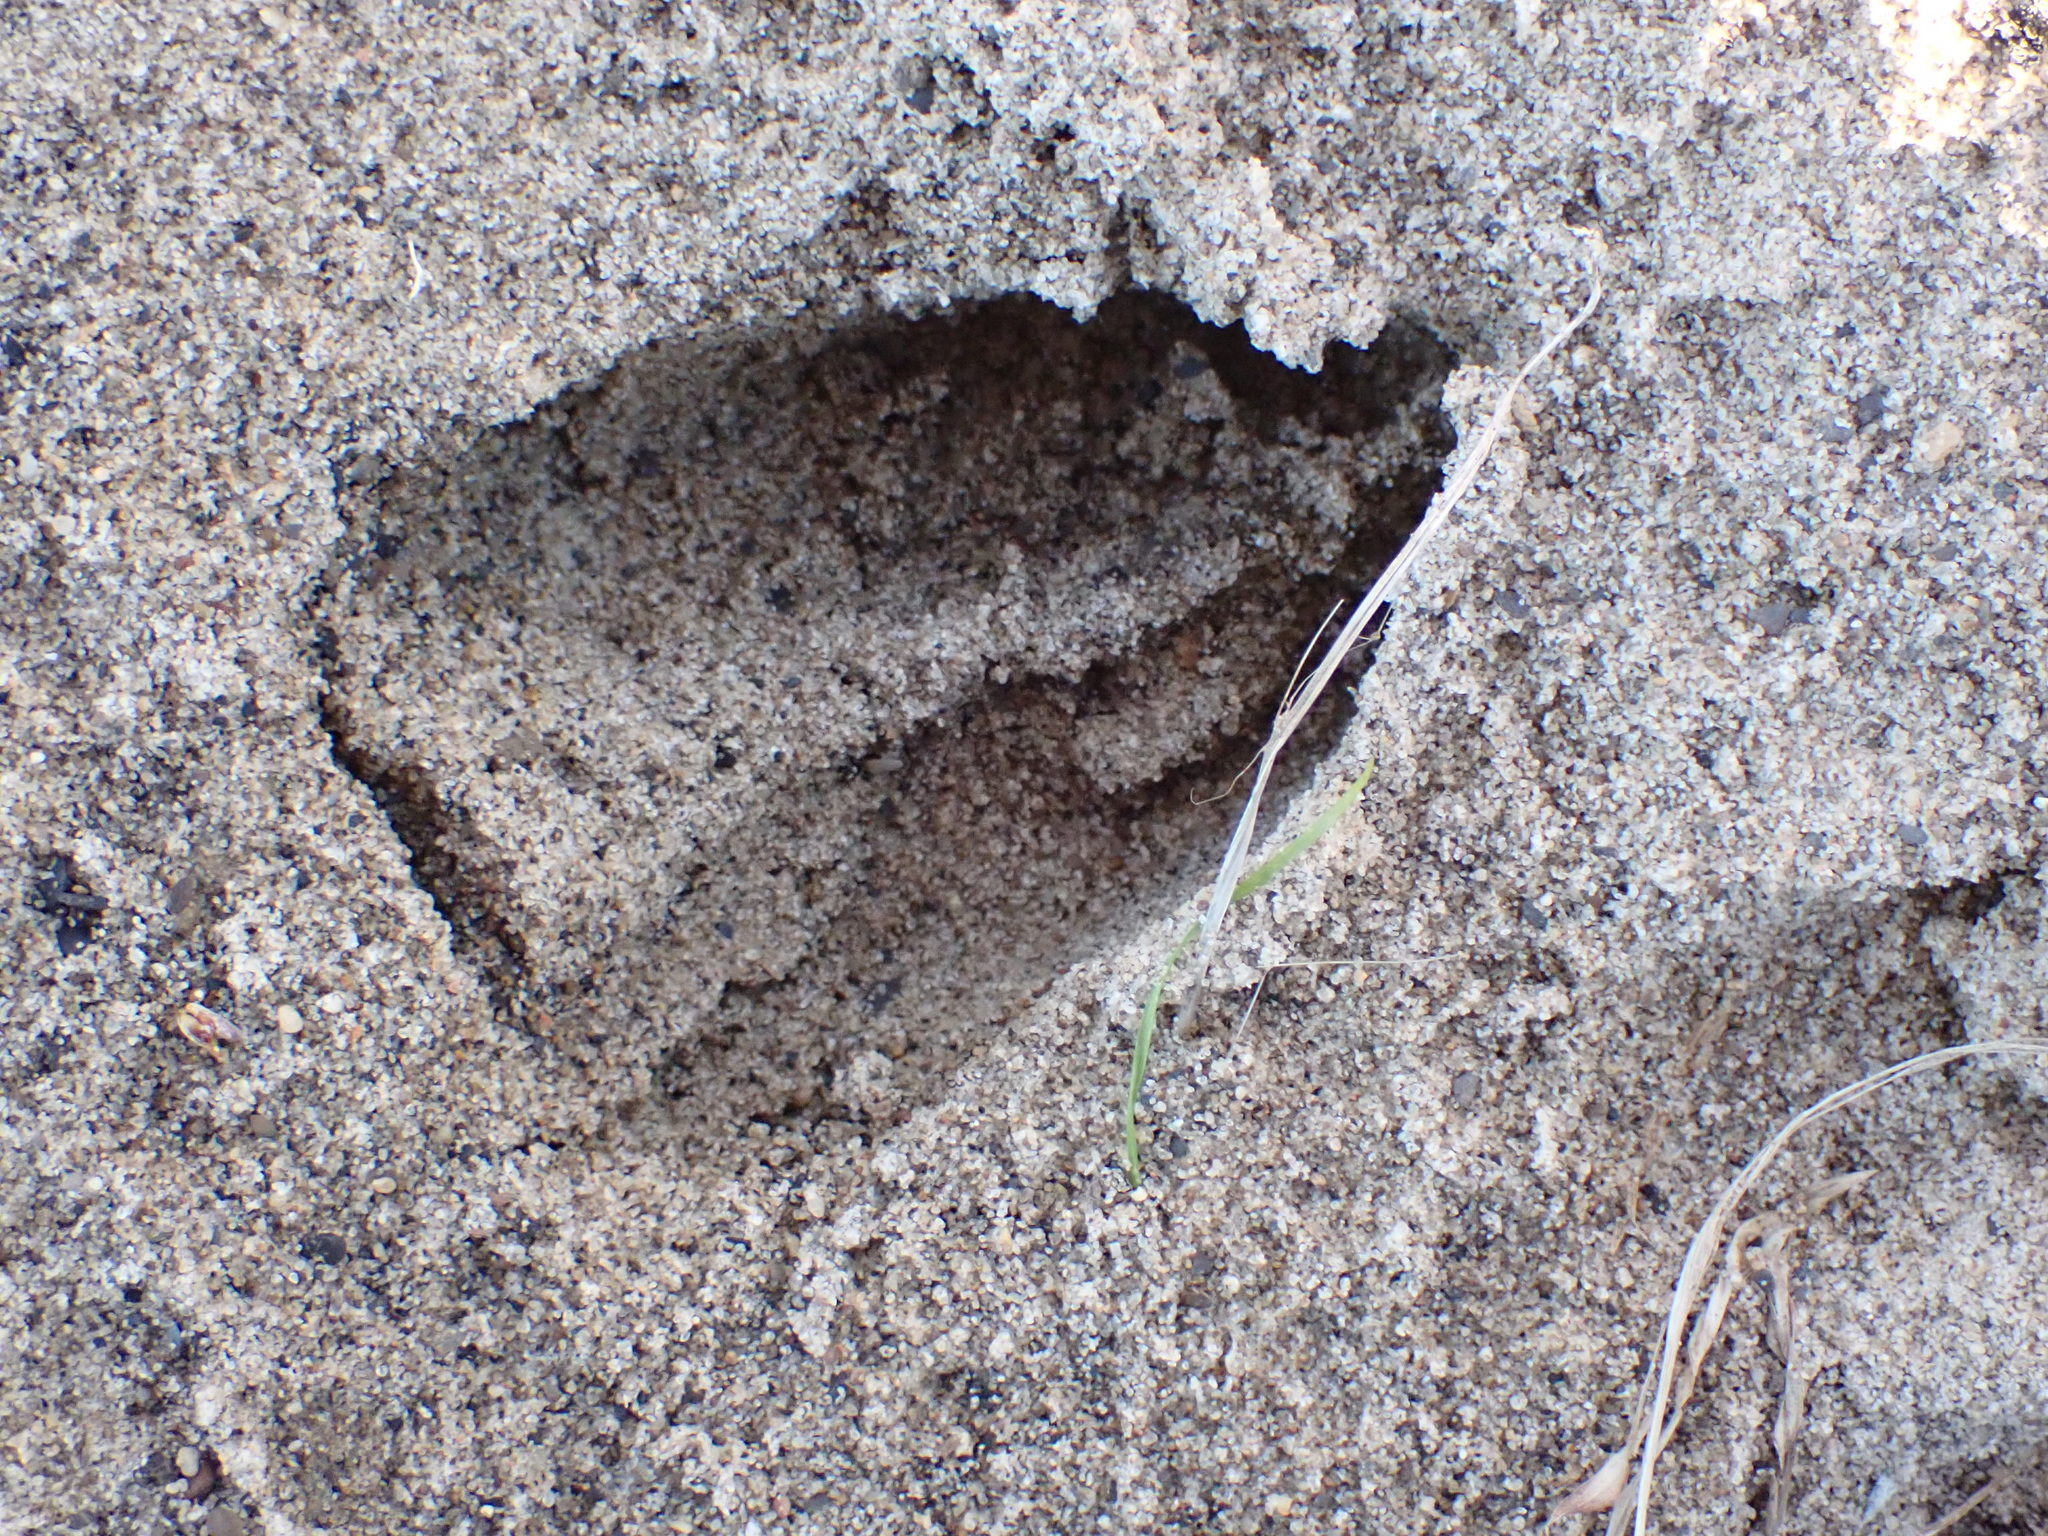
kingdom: Animalia
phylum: Chordata
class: Mammalia
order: Artiodactyla
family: Cervidae
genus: Odocoileus
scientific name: Odocoileus virginianus
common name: White-tailed deer
